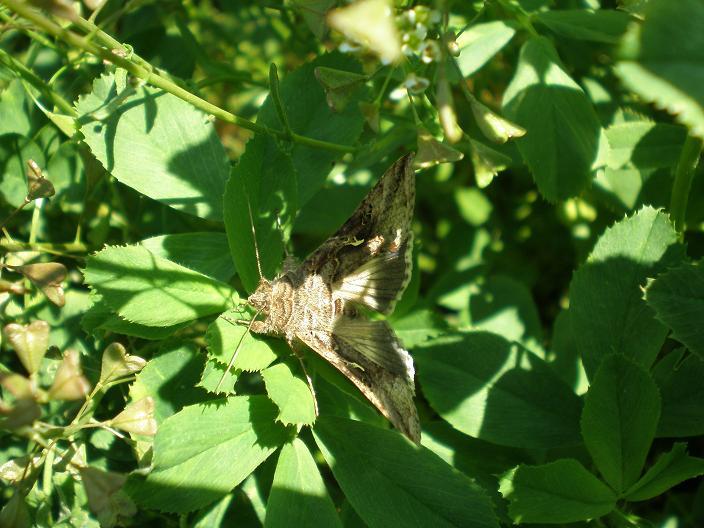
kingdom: Animalia
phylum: Arthropoda
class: Insecta
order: Lepidoptera
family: Noctuidae
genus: Autographa
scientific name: Autographa gamma
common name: Silver y
